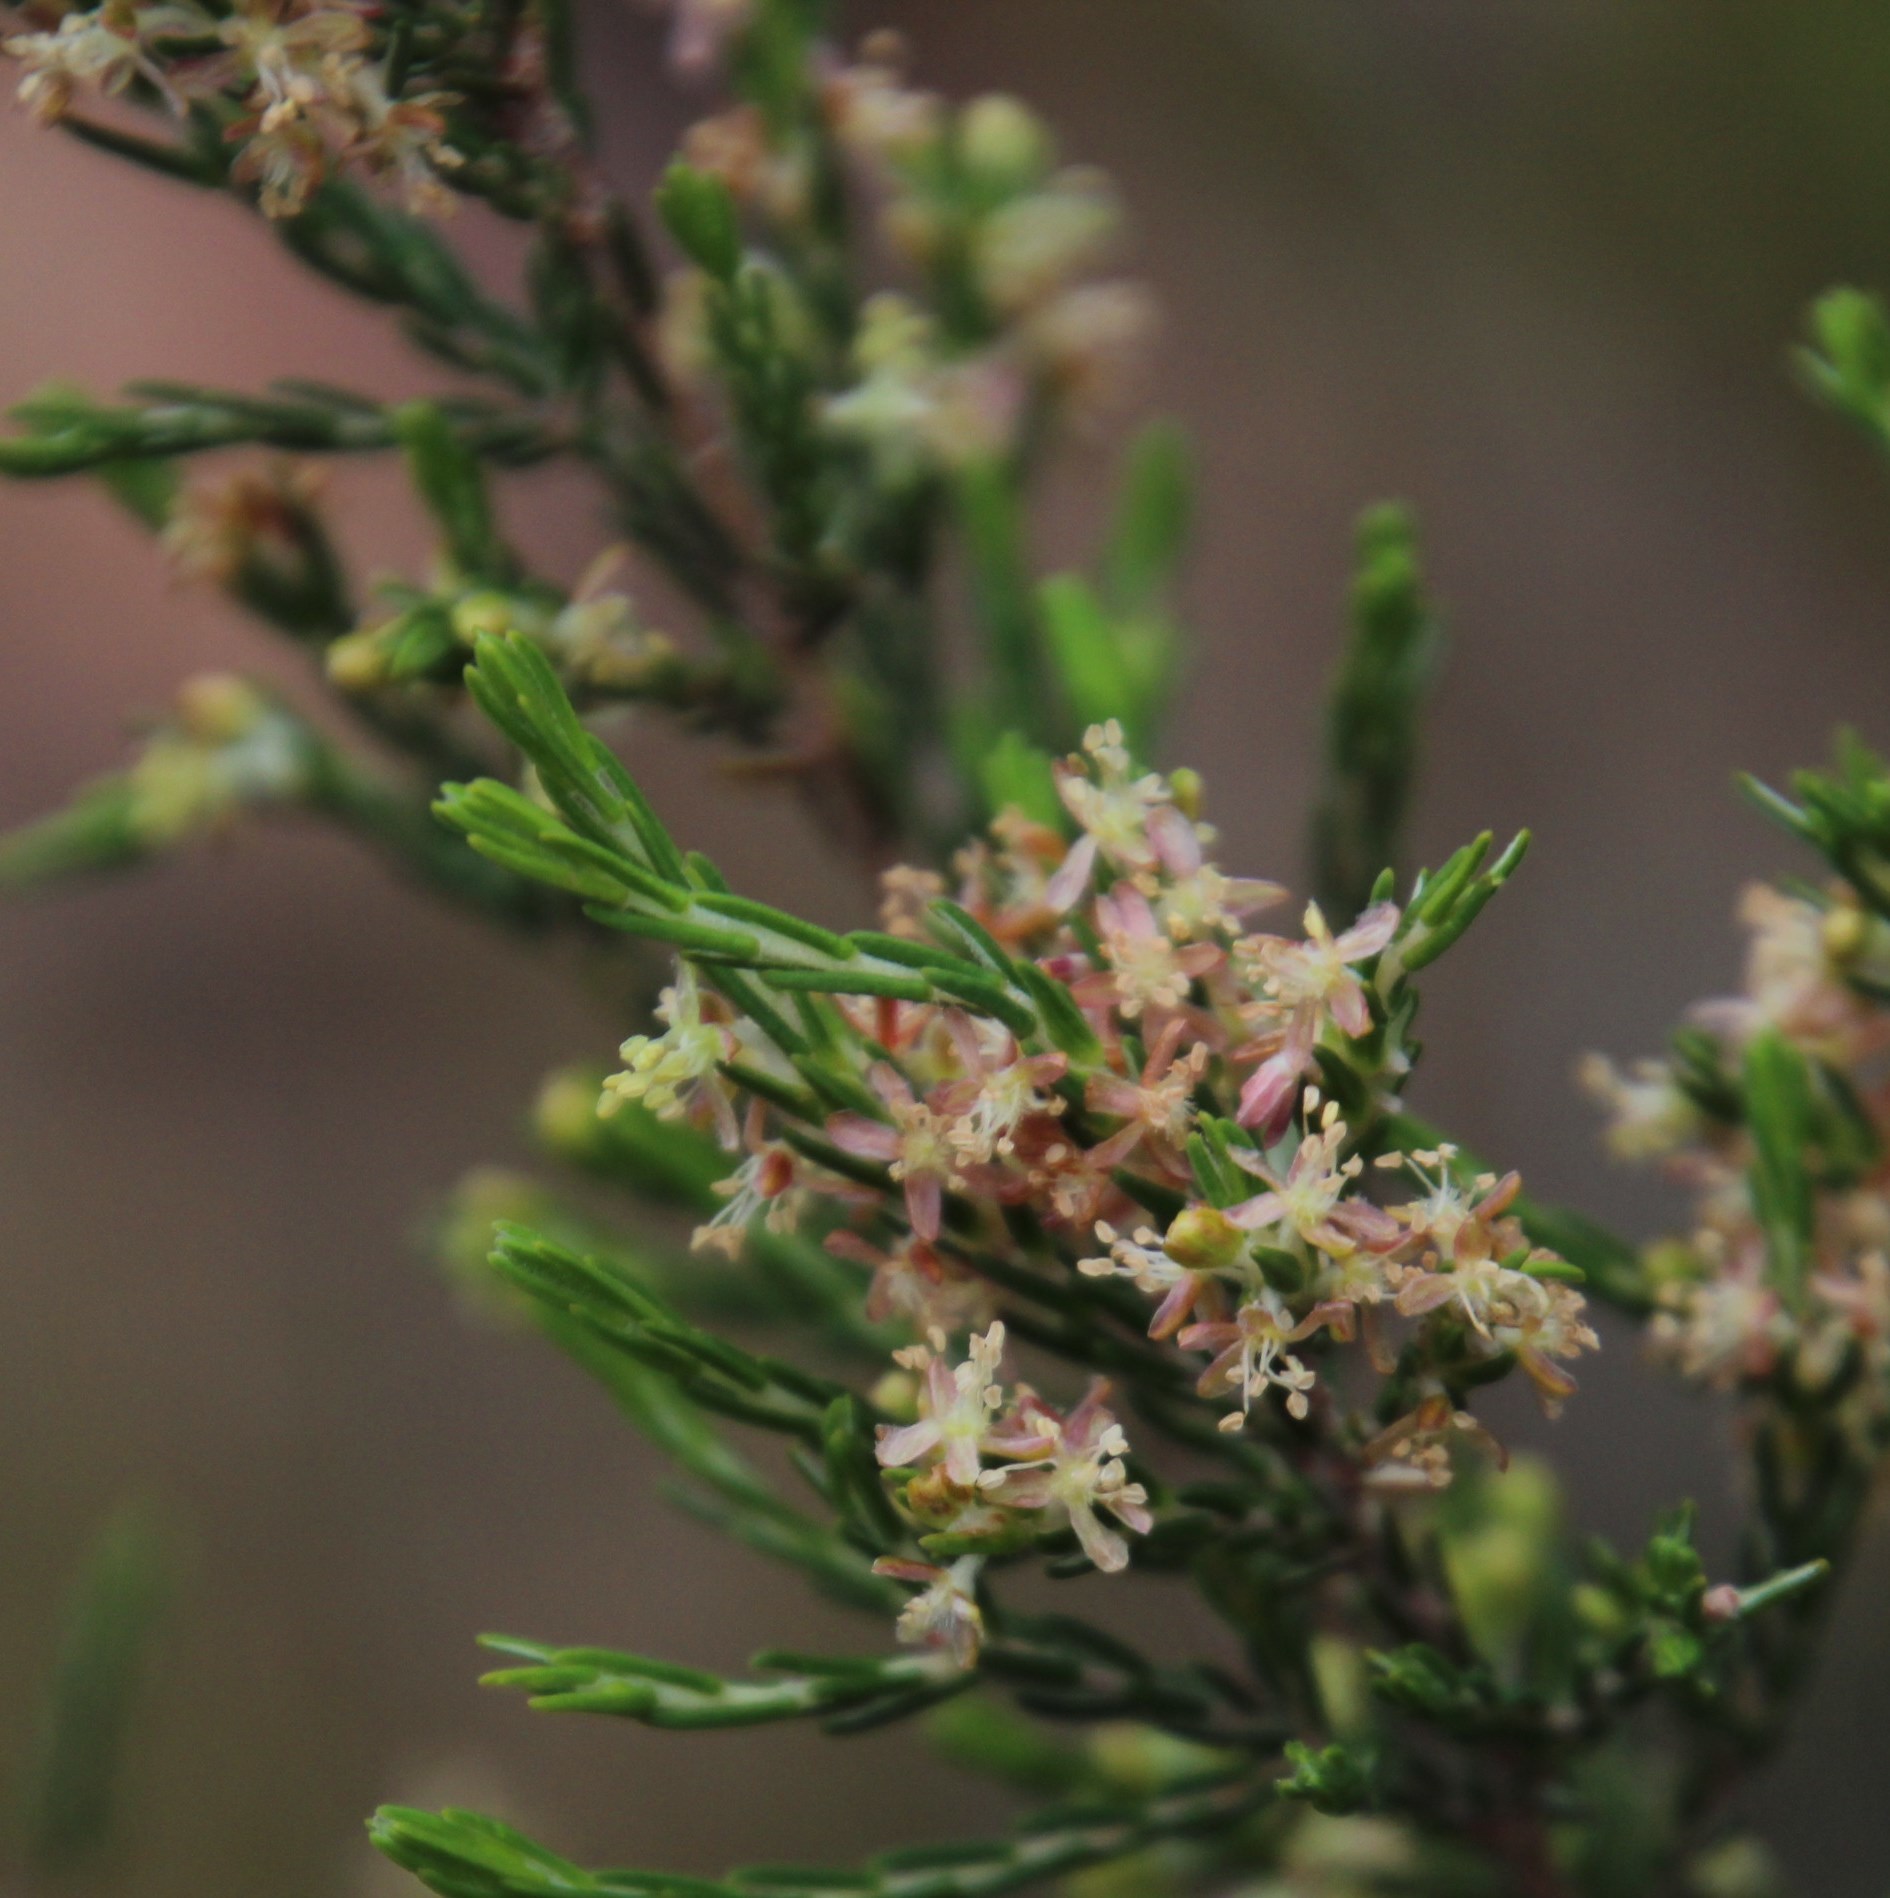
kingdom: Plantae
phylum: Tracheophyta
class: Magnoliopsida
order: Malvales
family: Thymelaeaceae
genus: Passerina
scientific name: Passerina corymbosa
